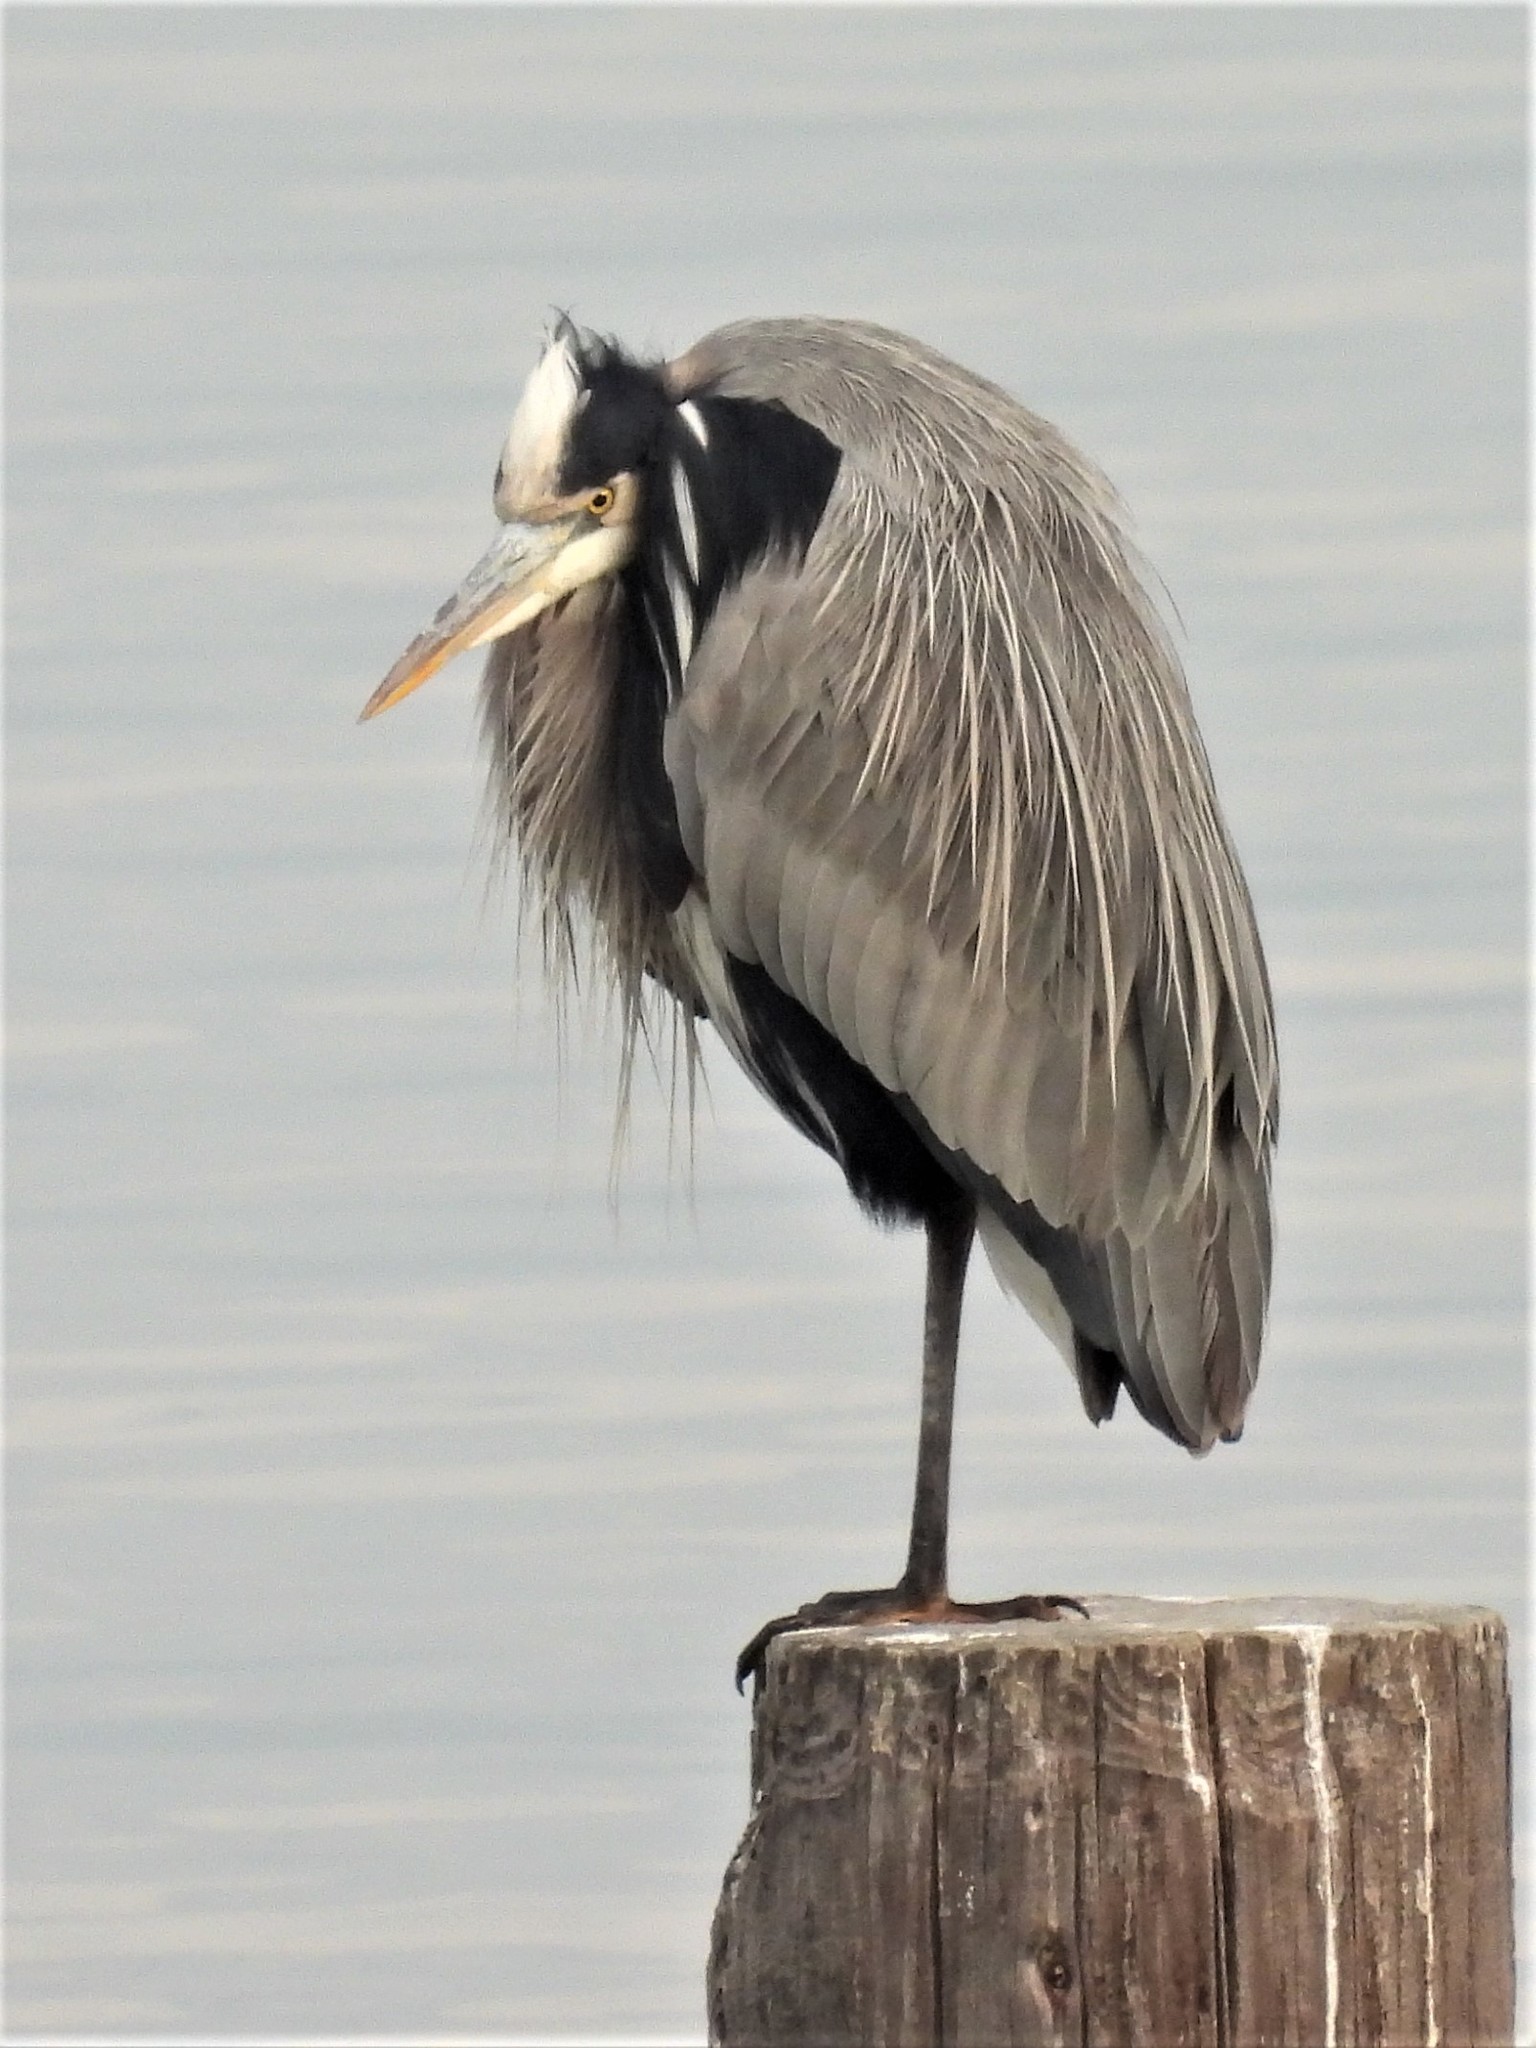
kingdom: Animalia
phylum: Chordata
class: Aves
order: Pelecaniformes
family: Ardeidae
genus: Ardea
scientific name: Ardea herodias
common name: Great blue heron
